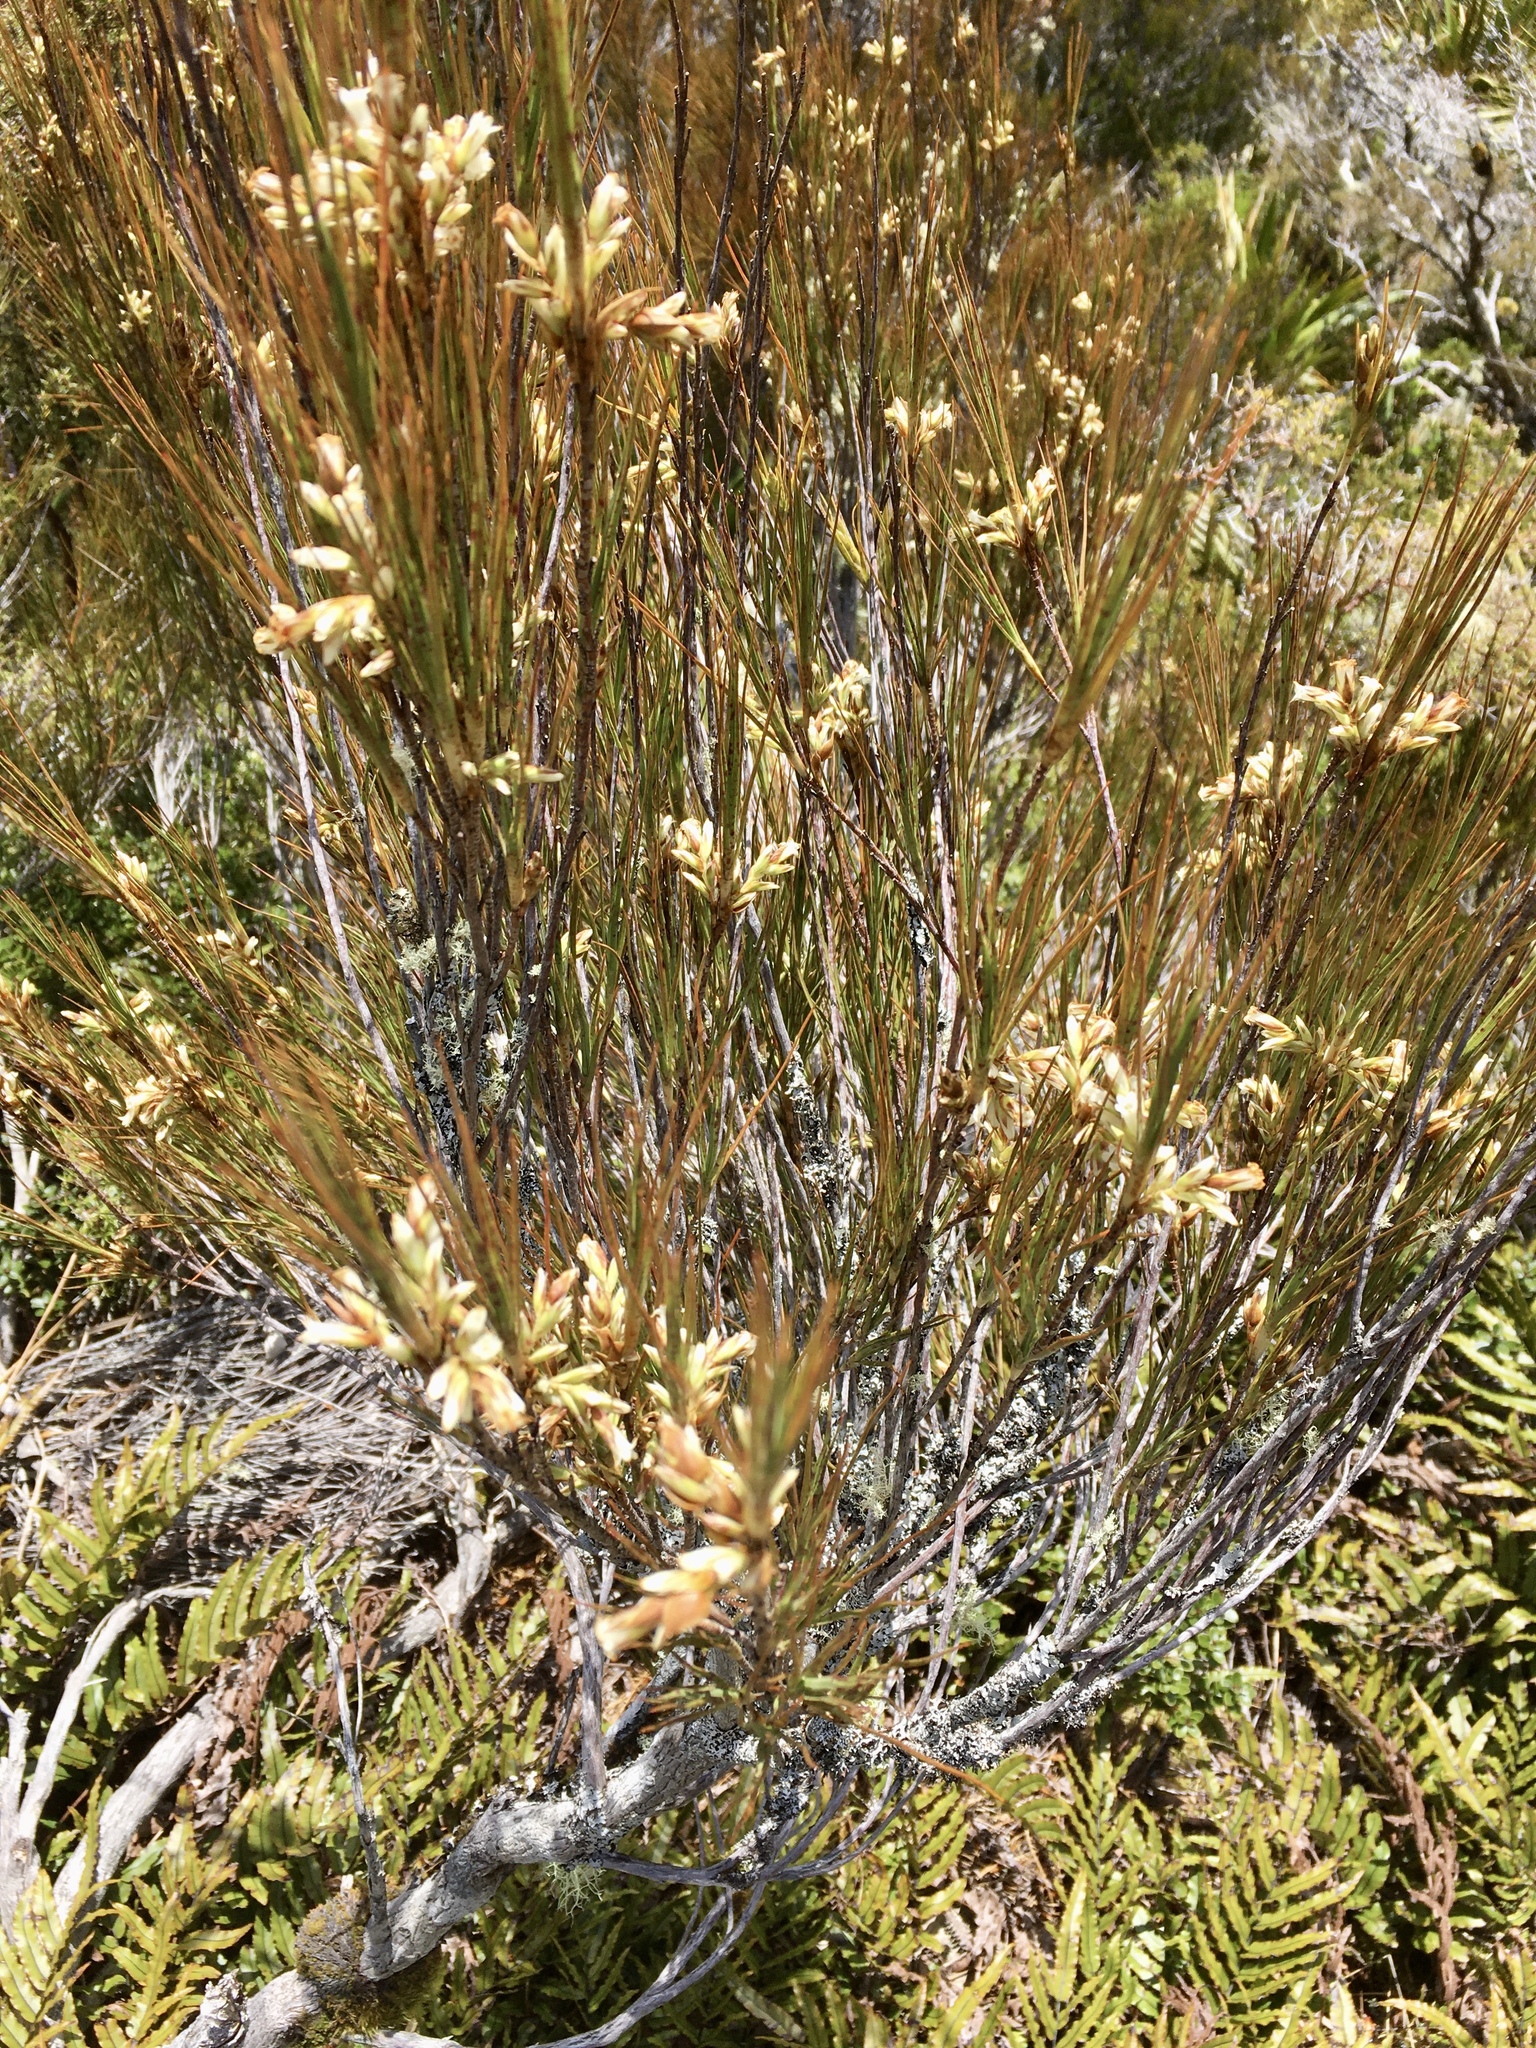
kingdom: Plantae
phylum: Tracheophyta
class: Magnoliopsida
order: Ericales
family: Ericaceae
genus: Dracophyllum
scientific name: Dracophyllum longifolium
